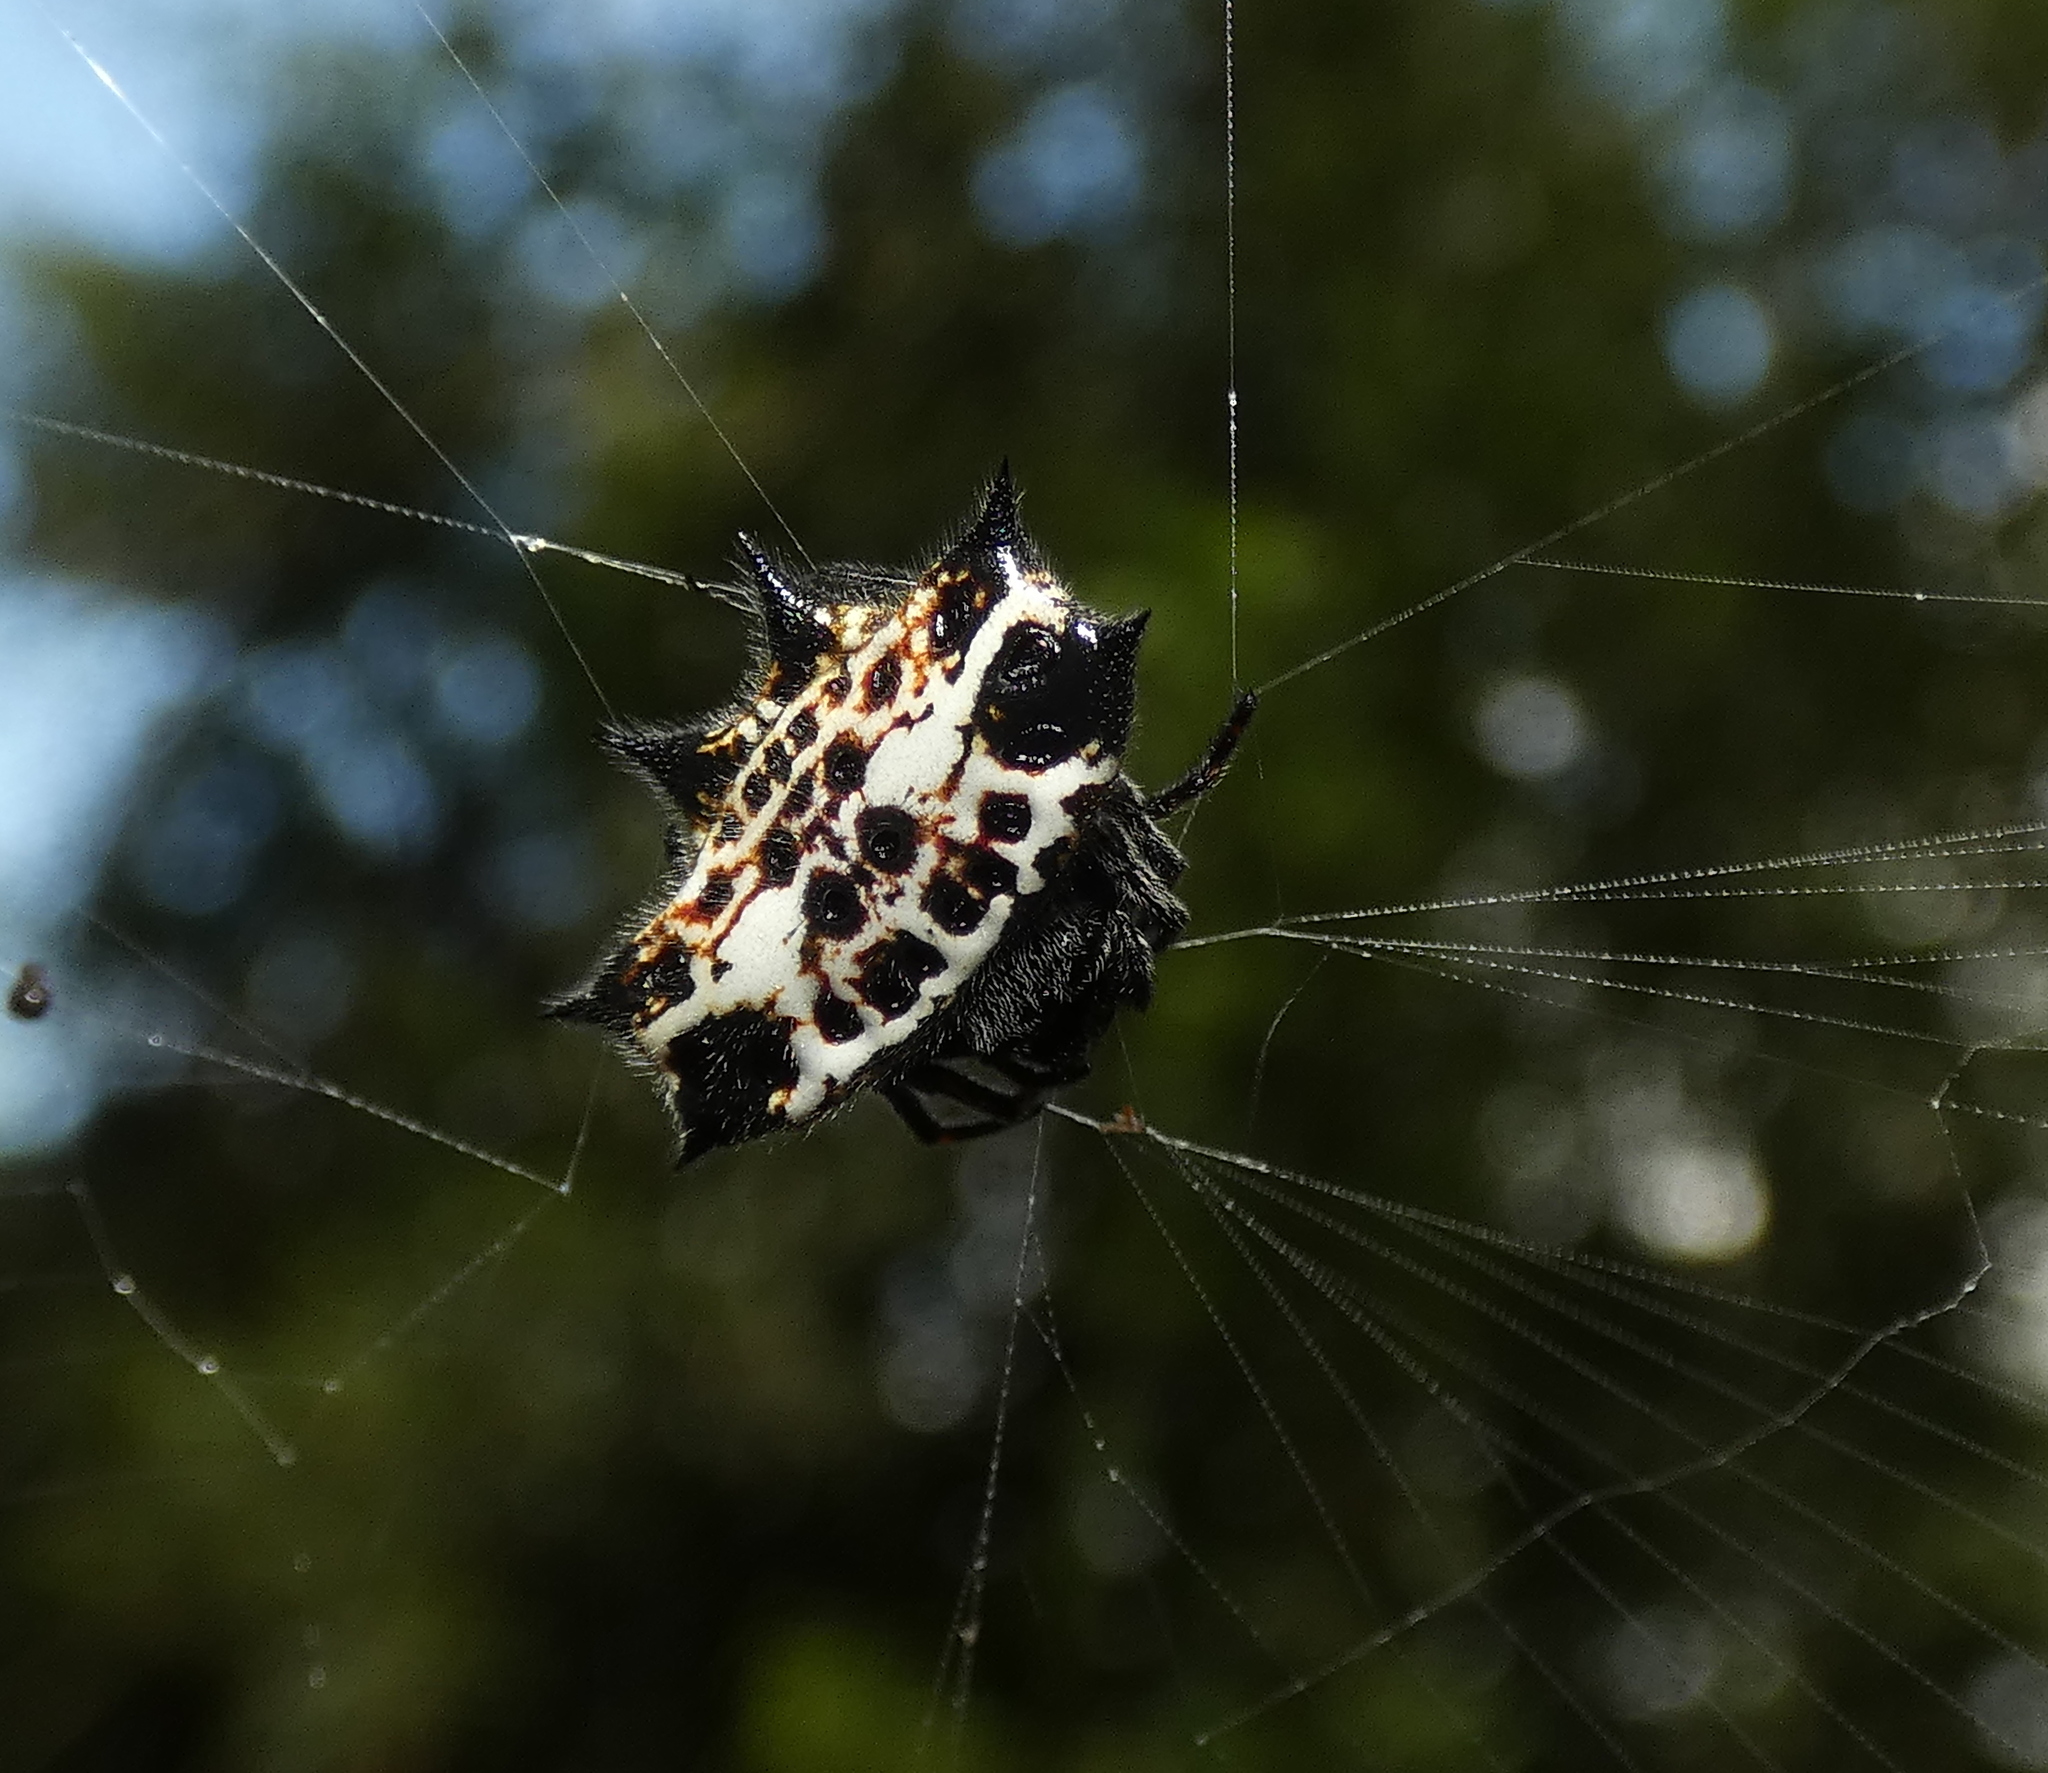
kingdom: Animalia
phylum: Arthropoda
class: Arachnida
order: Araneae
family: Araneidae
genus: Gasteracantha
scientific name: Gasteracantha cancriformis
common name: Orb weavers
